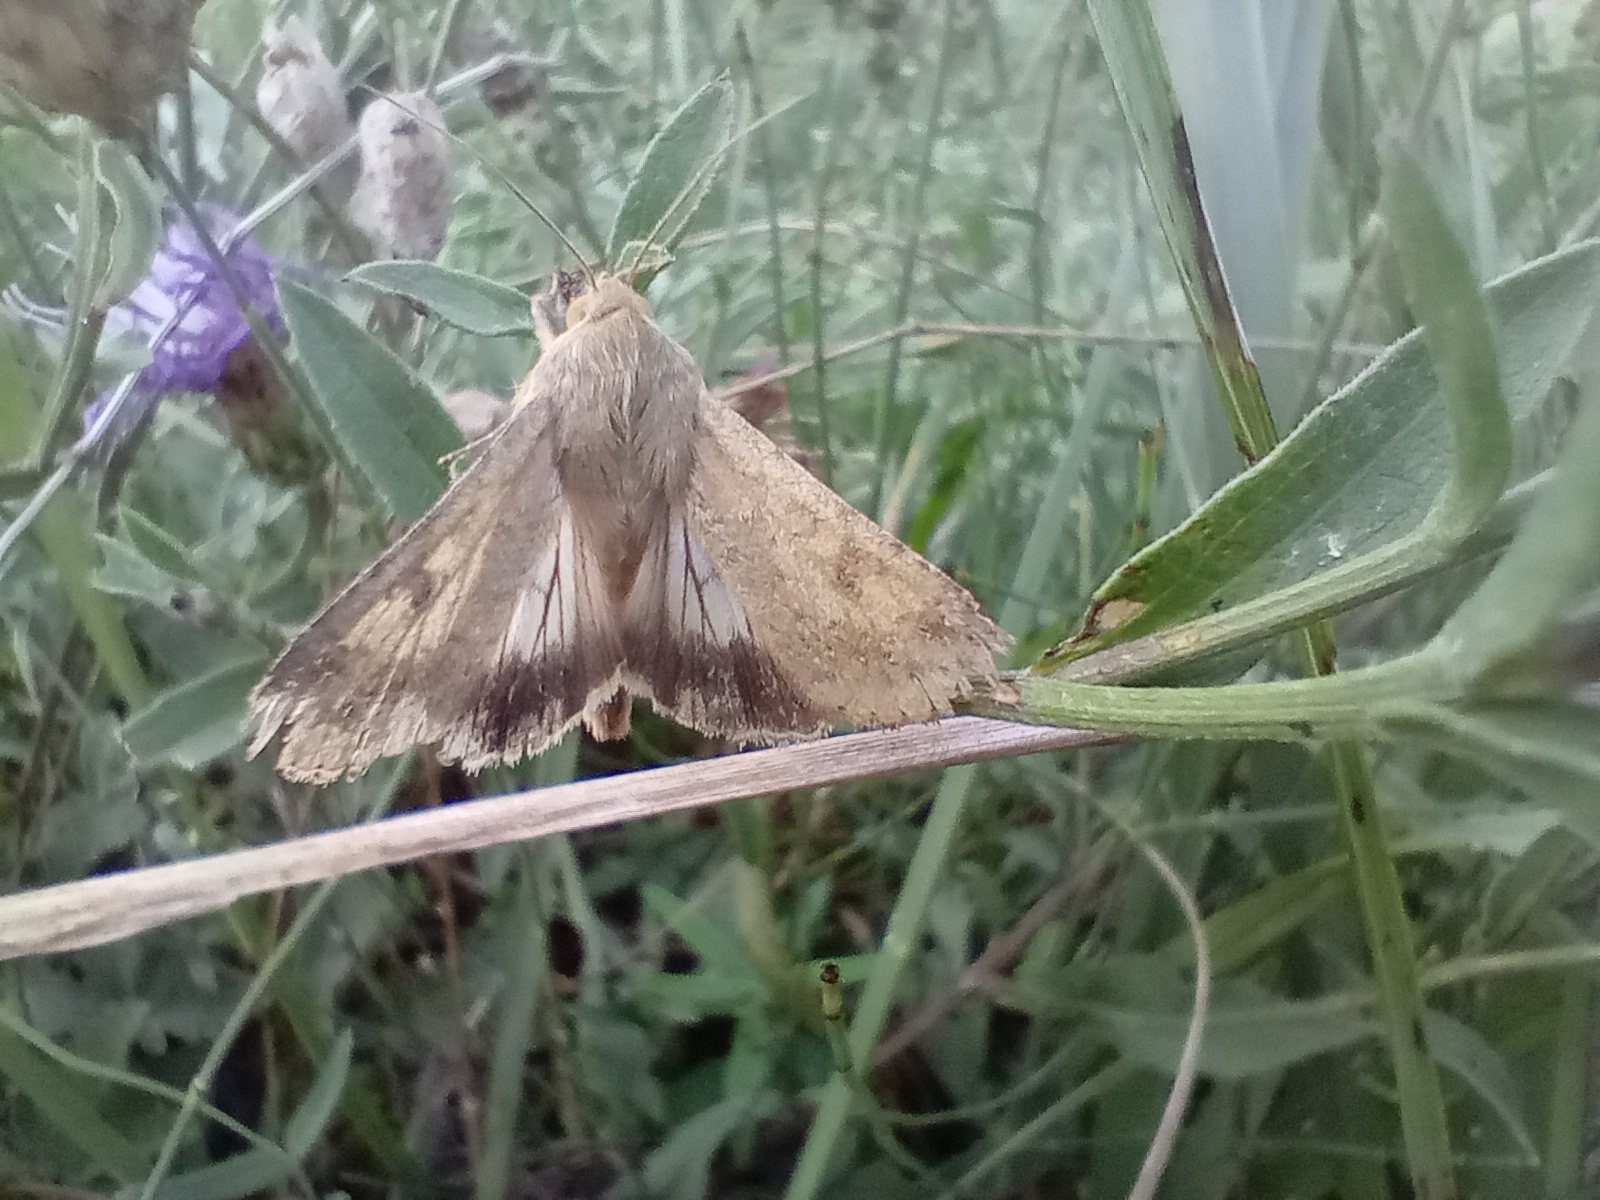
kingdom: Animalia
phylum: Arthropoda
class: Insecta
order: Lepidoptera
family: Noctuidae
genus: Helicoverpa
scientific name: Helicoverpa armigera
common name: Cotton bollworm
